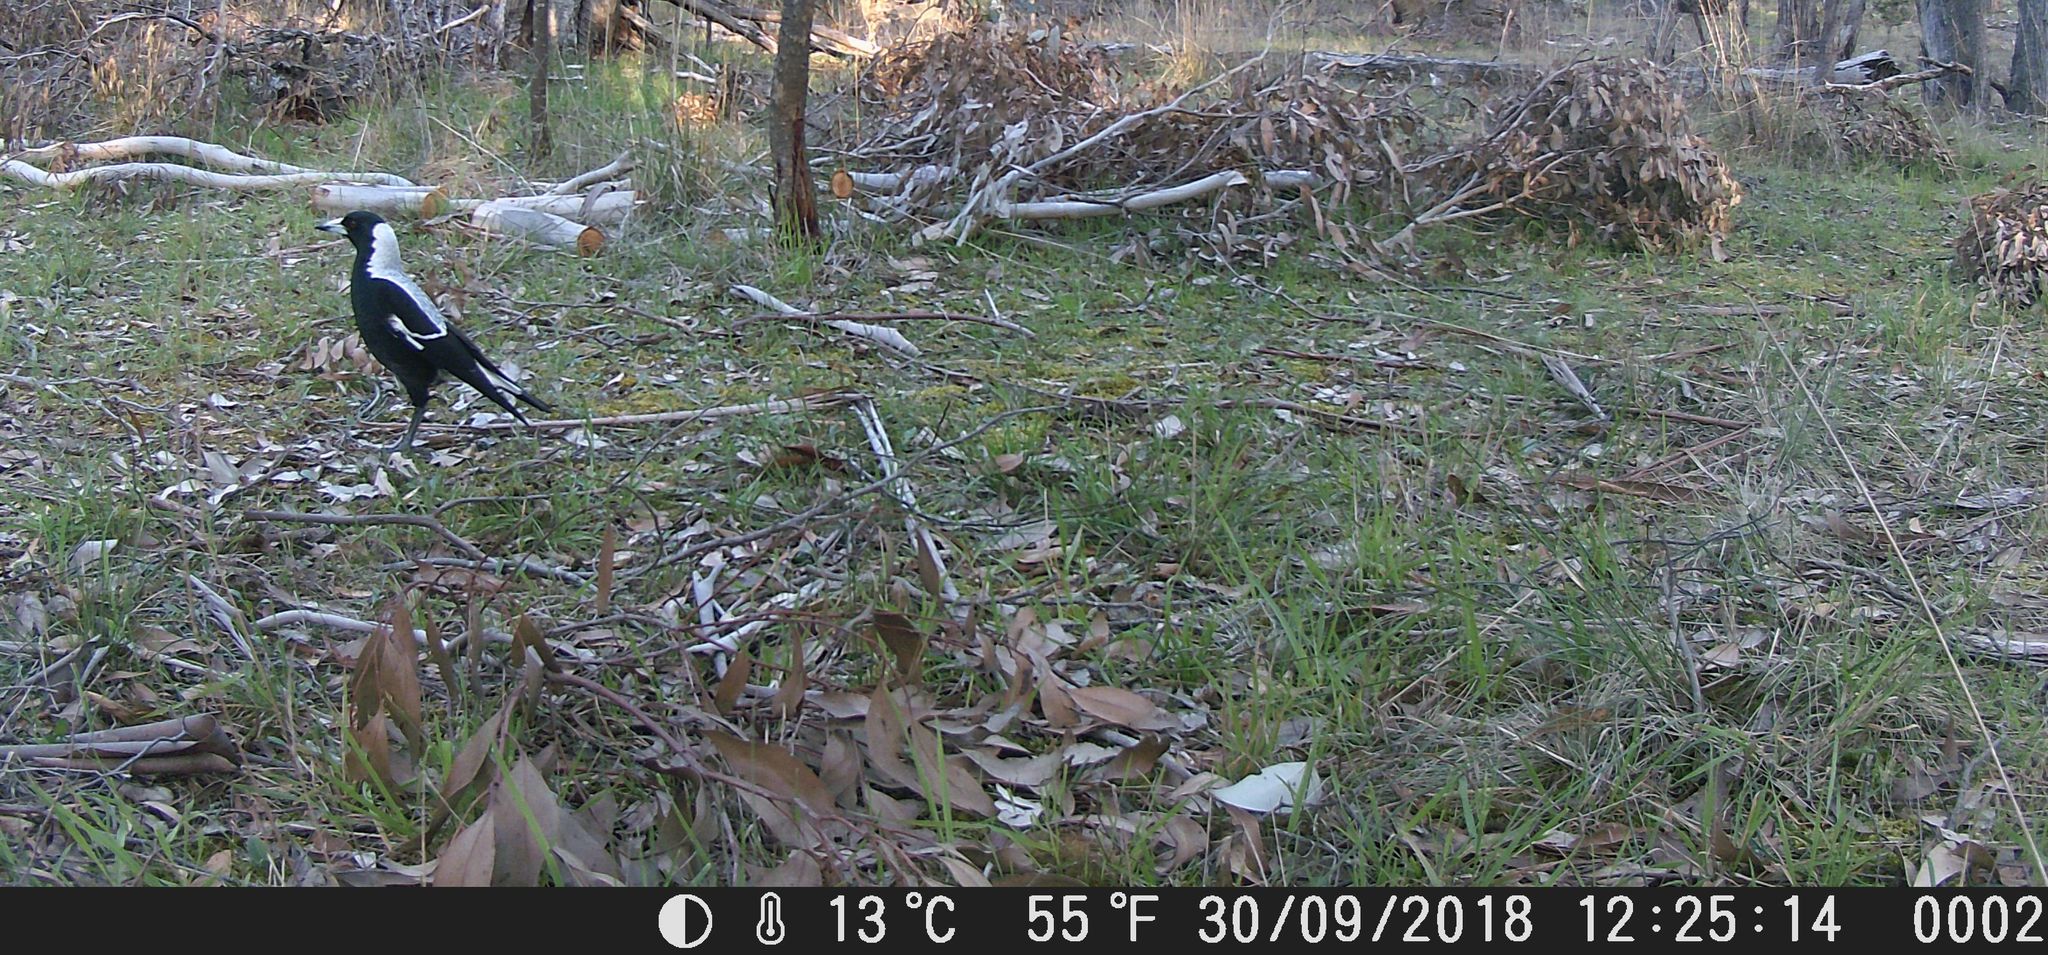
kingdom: Animalia
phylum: Chordata
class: Aves
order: Passeriformes
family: Cracticidae
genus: Gymnorhina
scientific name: Gymnorhina tibicen
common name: Australian magpie
